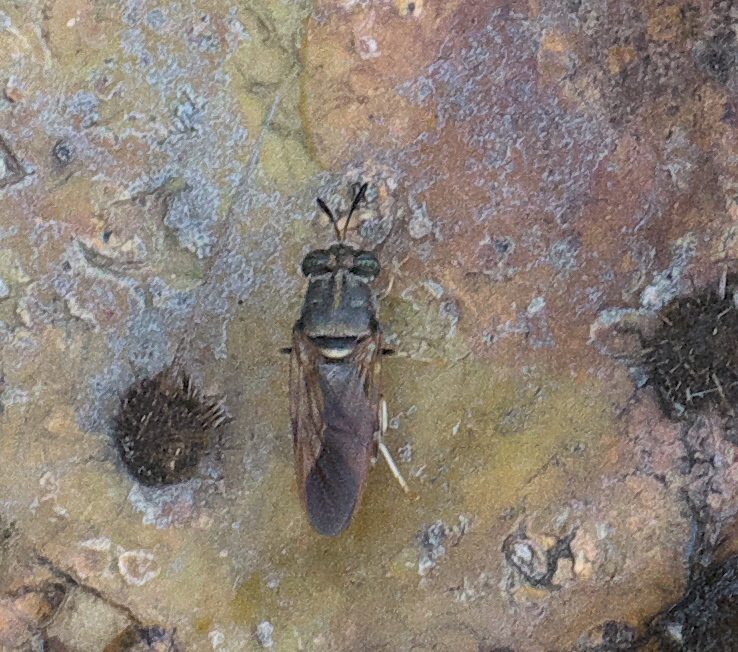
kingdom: Animalia
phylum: Arthropoda
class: Insecta
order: Diptera
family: Stratiomyidae
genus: Hermetia
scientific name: Hermetia subpellucida
